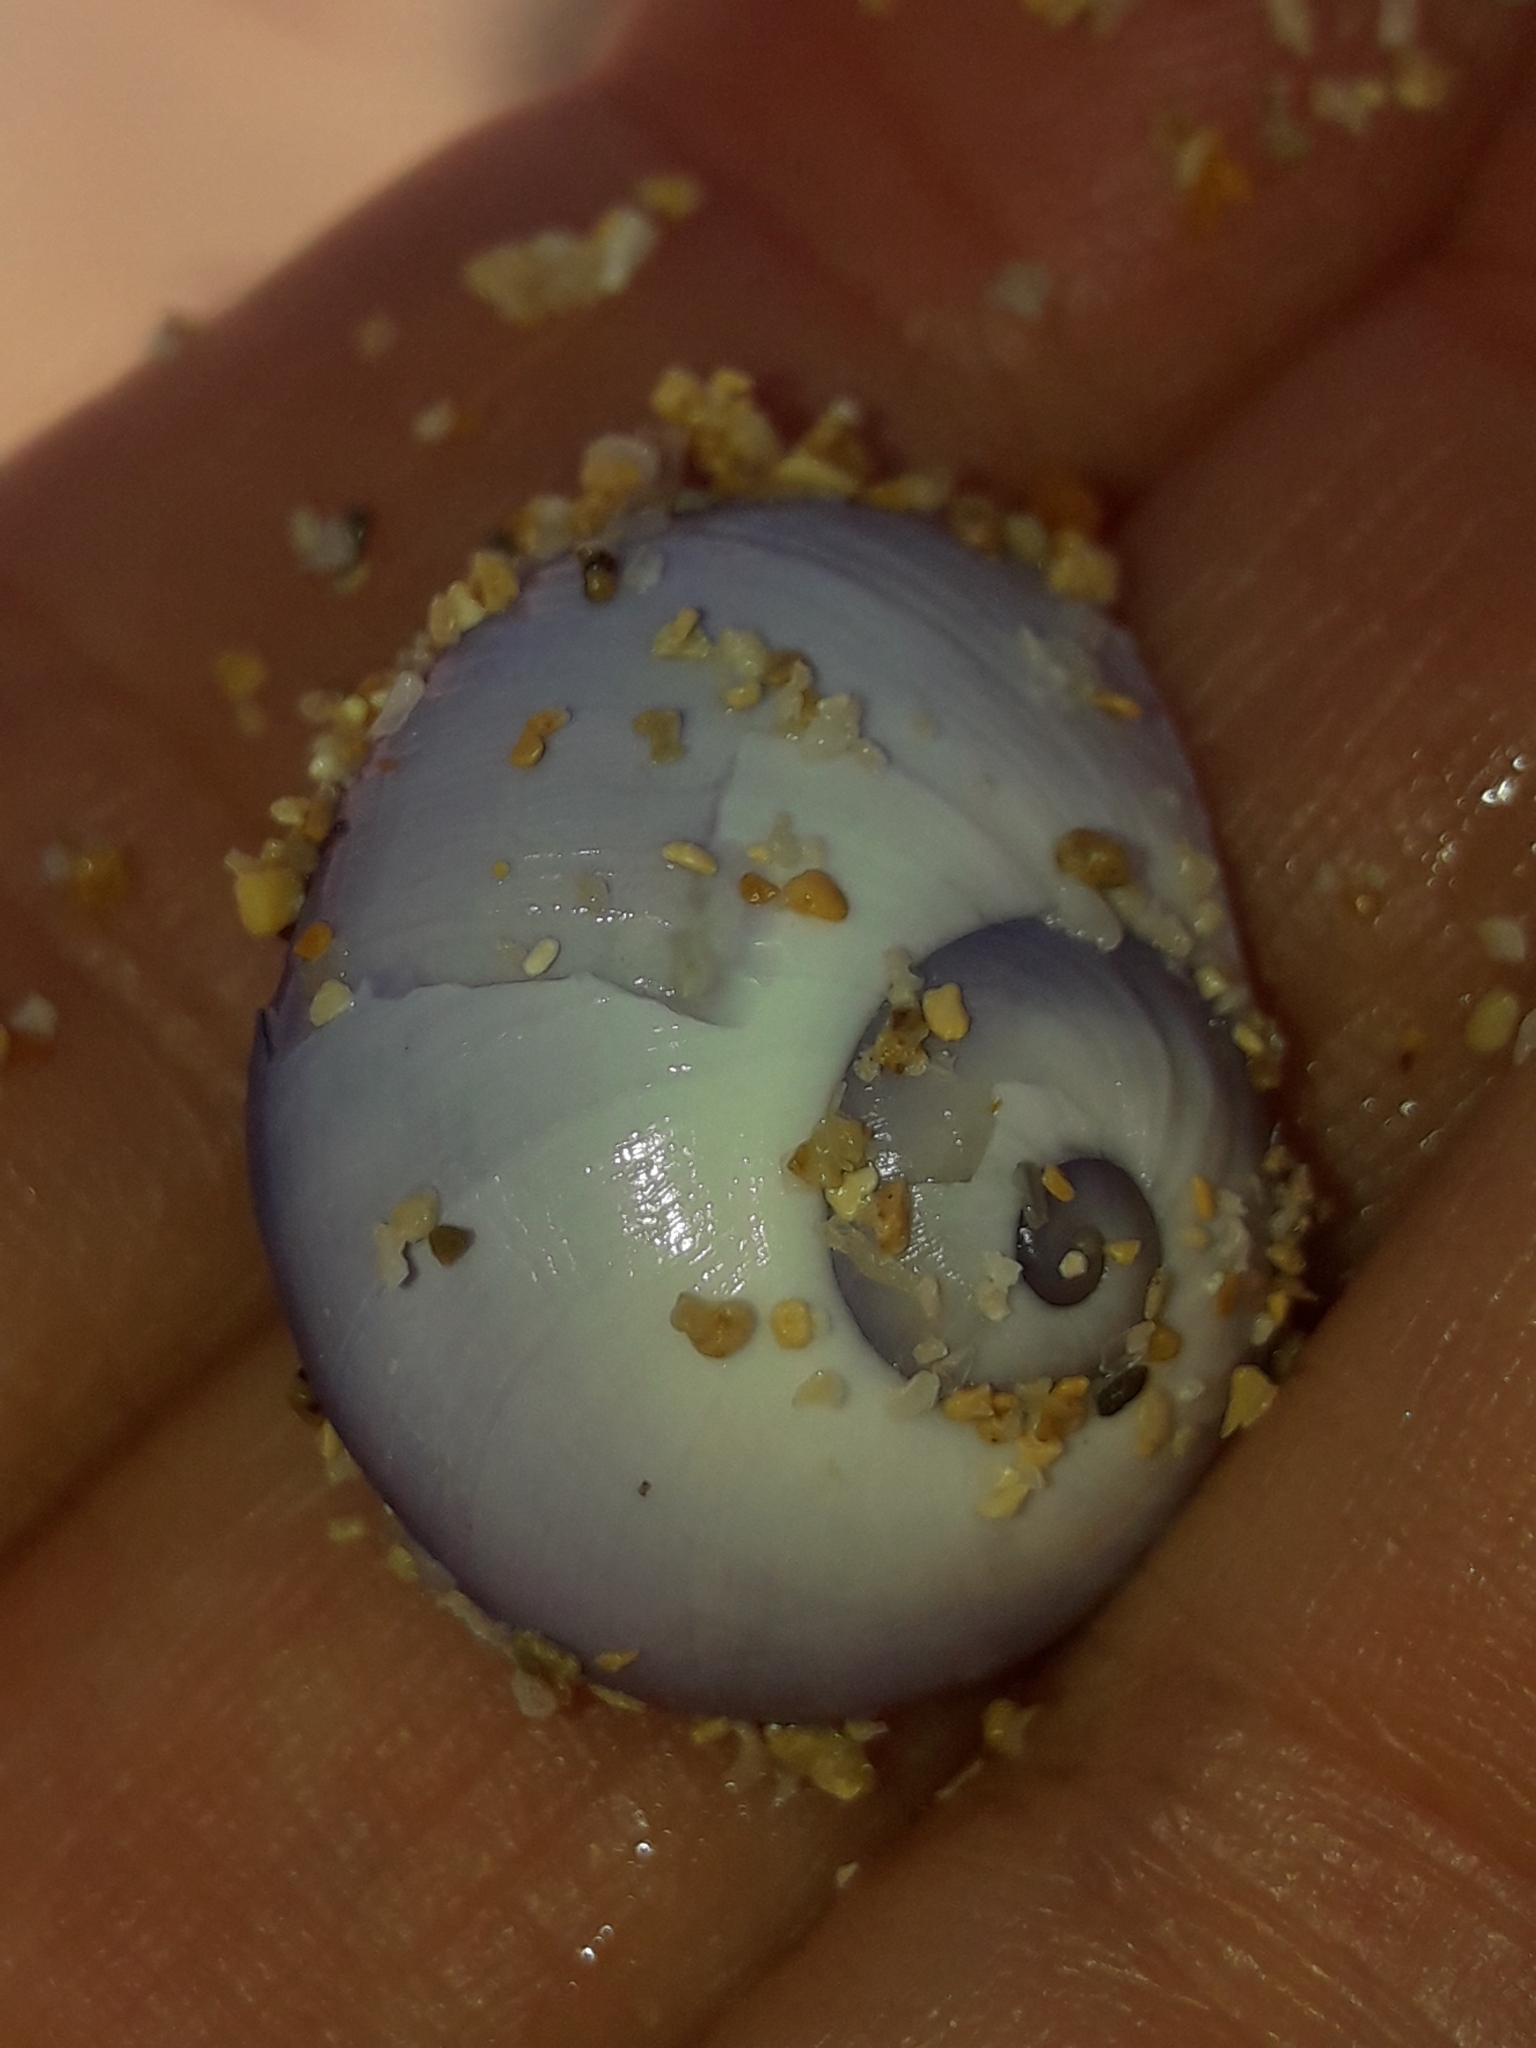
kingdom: Animalia
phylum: Mollusca
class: Gastropoda
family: Epitoniidae
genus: Janthina
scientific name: Janthina janthina
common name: Common janthina
